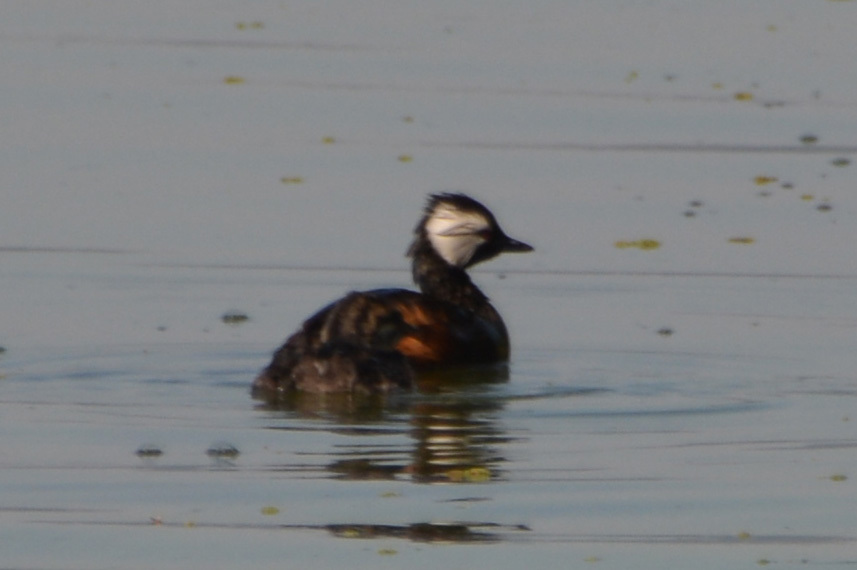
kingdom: Animalia
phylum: Chordata
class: Aves
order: Podicipediformes
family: Podicipedidae
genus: Rollandia
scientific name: Rollandia rolland
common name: White-tufted grebe
